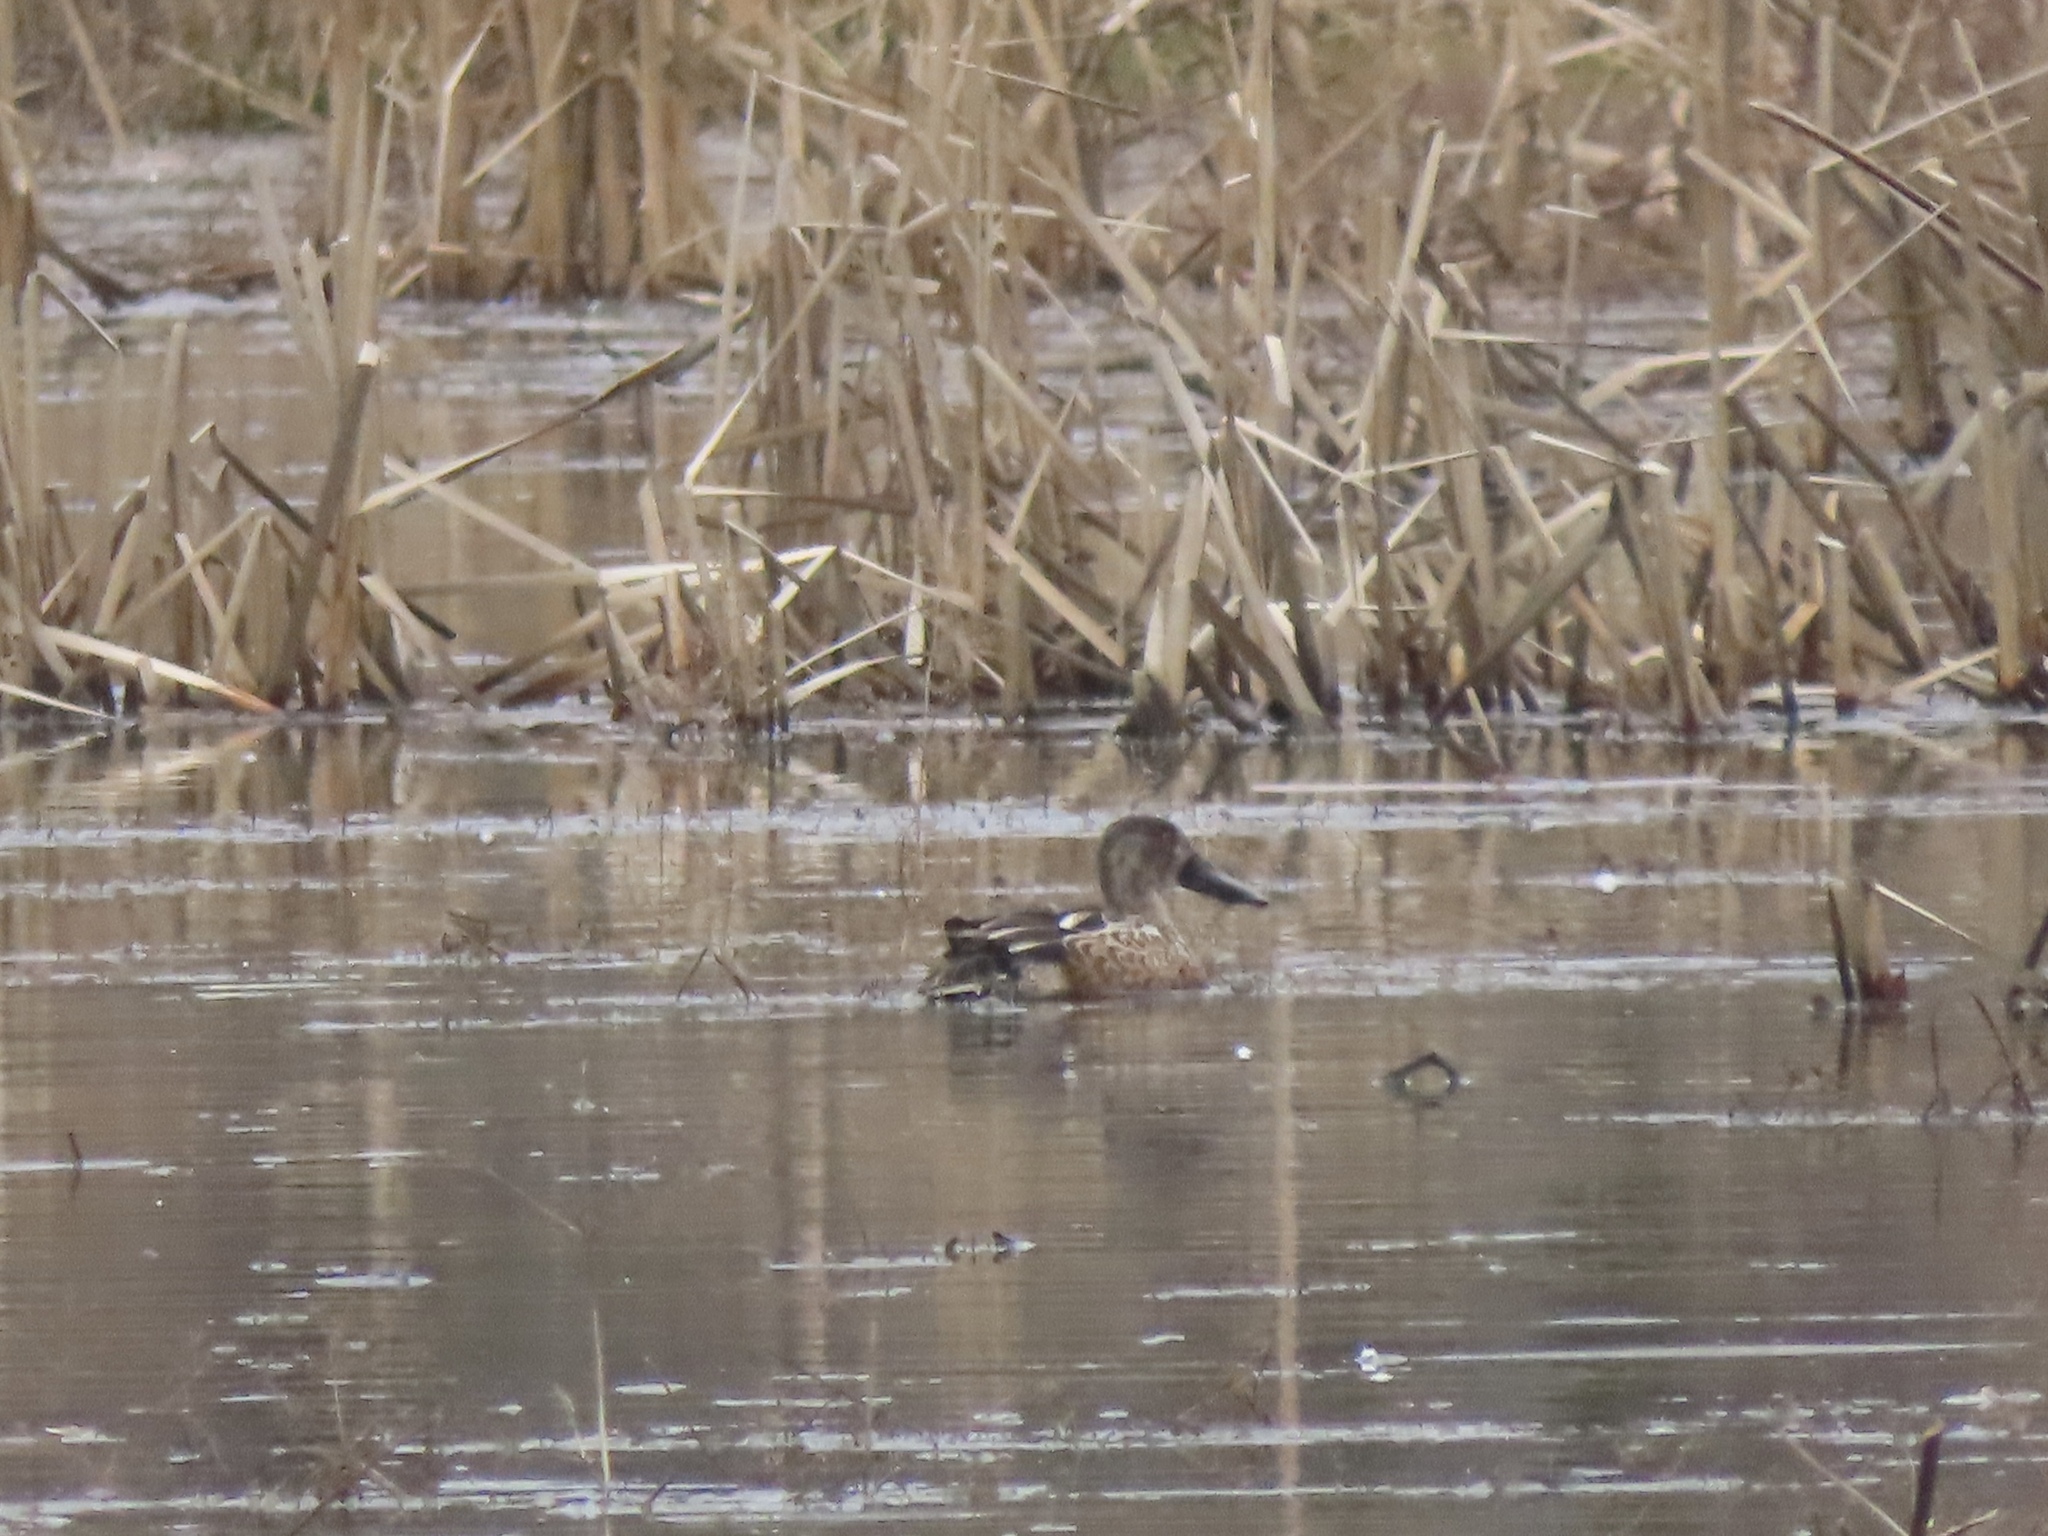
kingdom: Animalia
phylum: Chordata
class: Aves
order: Anseriformes
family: Anatidae
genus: Spatula
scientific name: Spatula clypeata
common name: Northern shoveler
